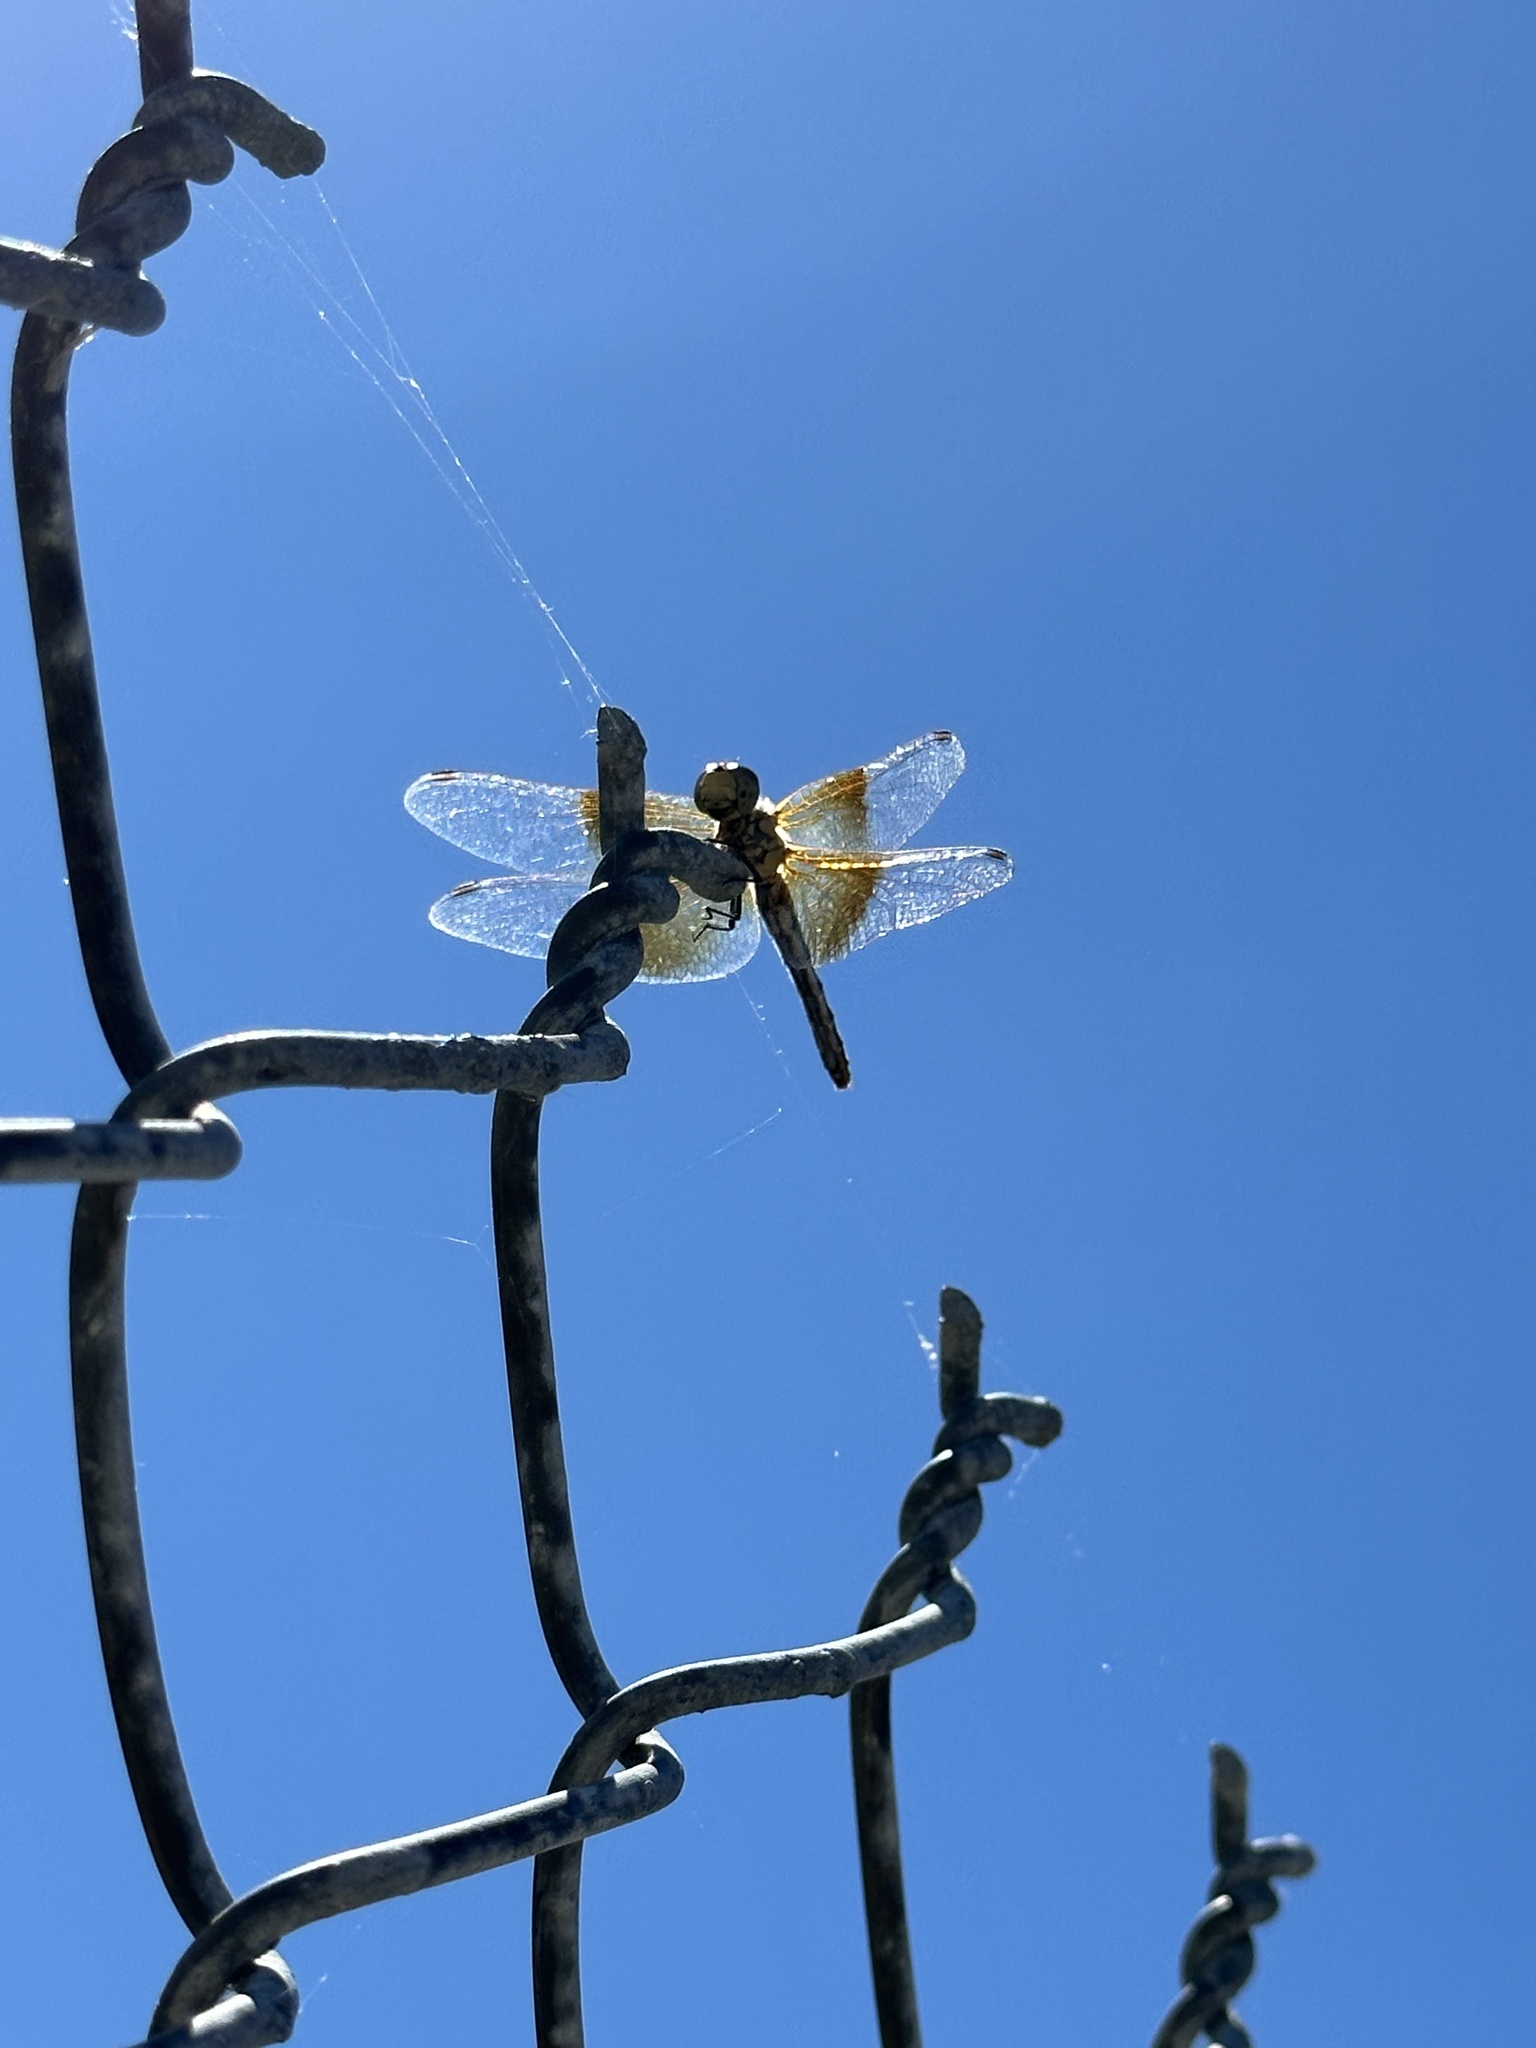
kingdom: Animalia
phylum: Arthropoda
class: Insecta
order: Odonata
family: Libellulidae
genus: Sympetrum
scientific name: Sympetrum semicinctum
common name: Band-winged meadowhawk
